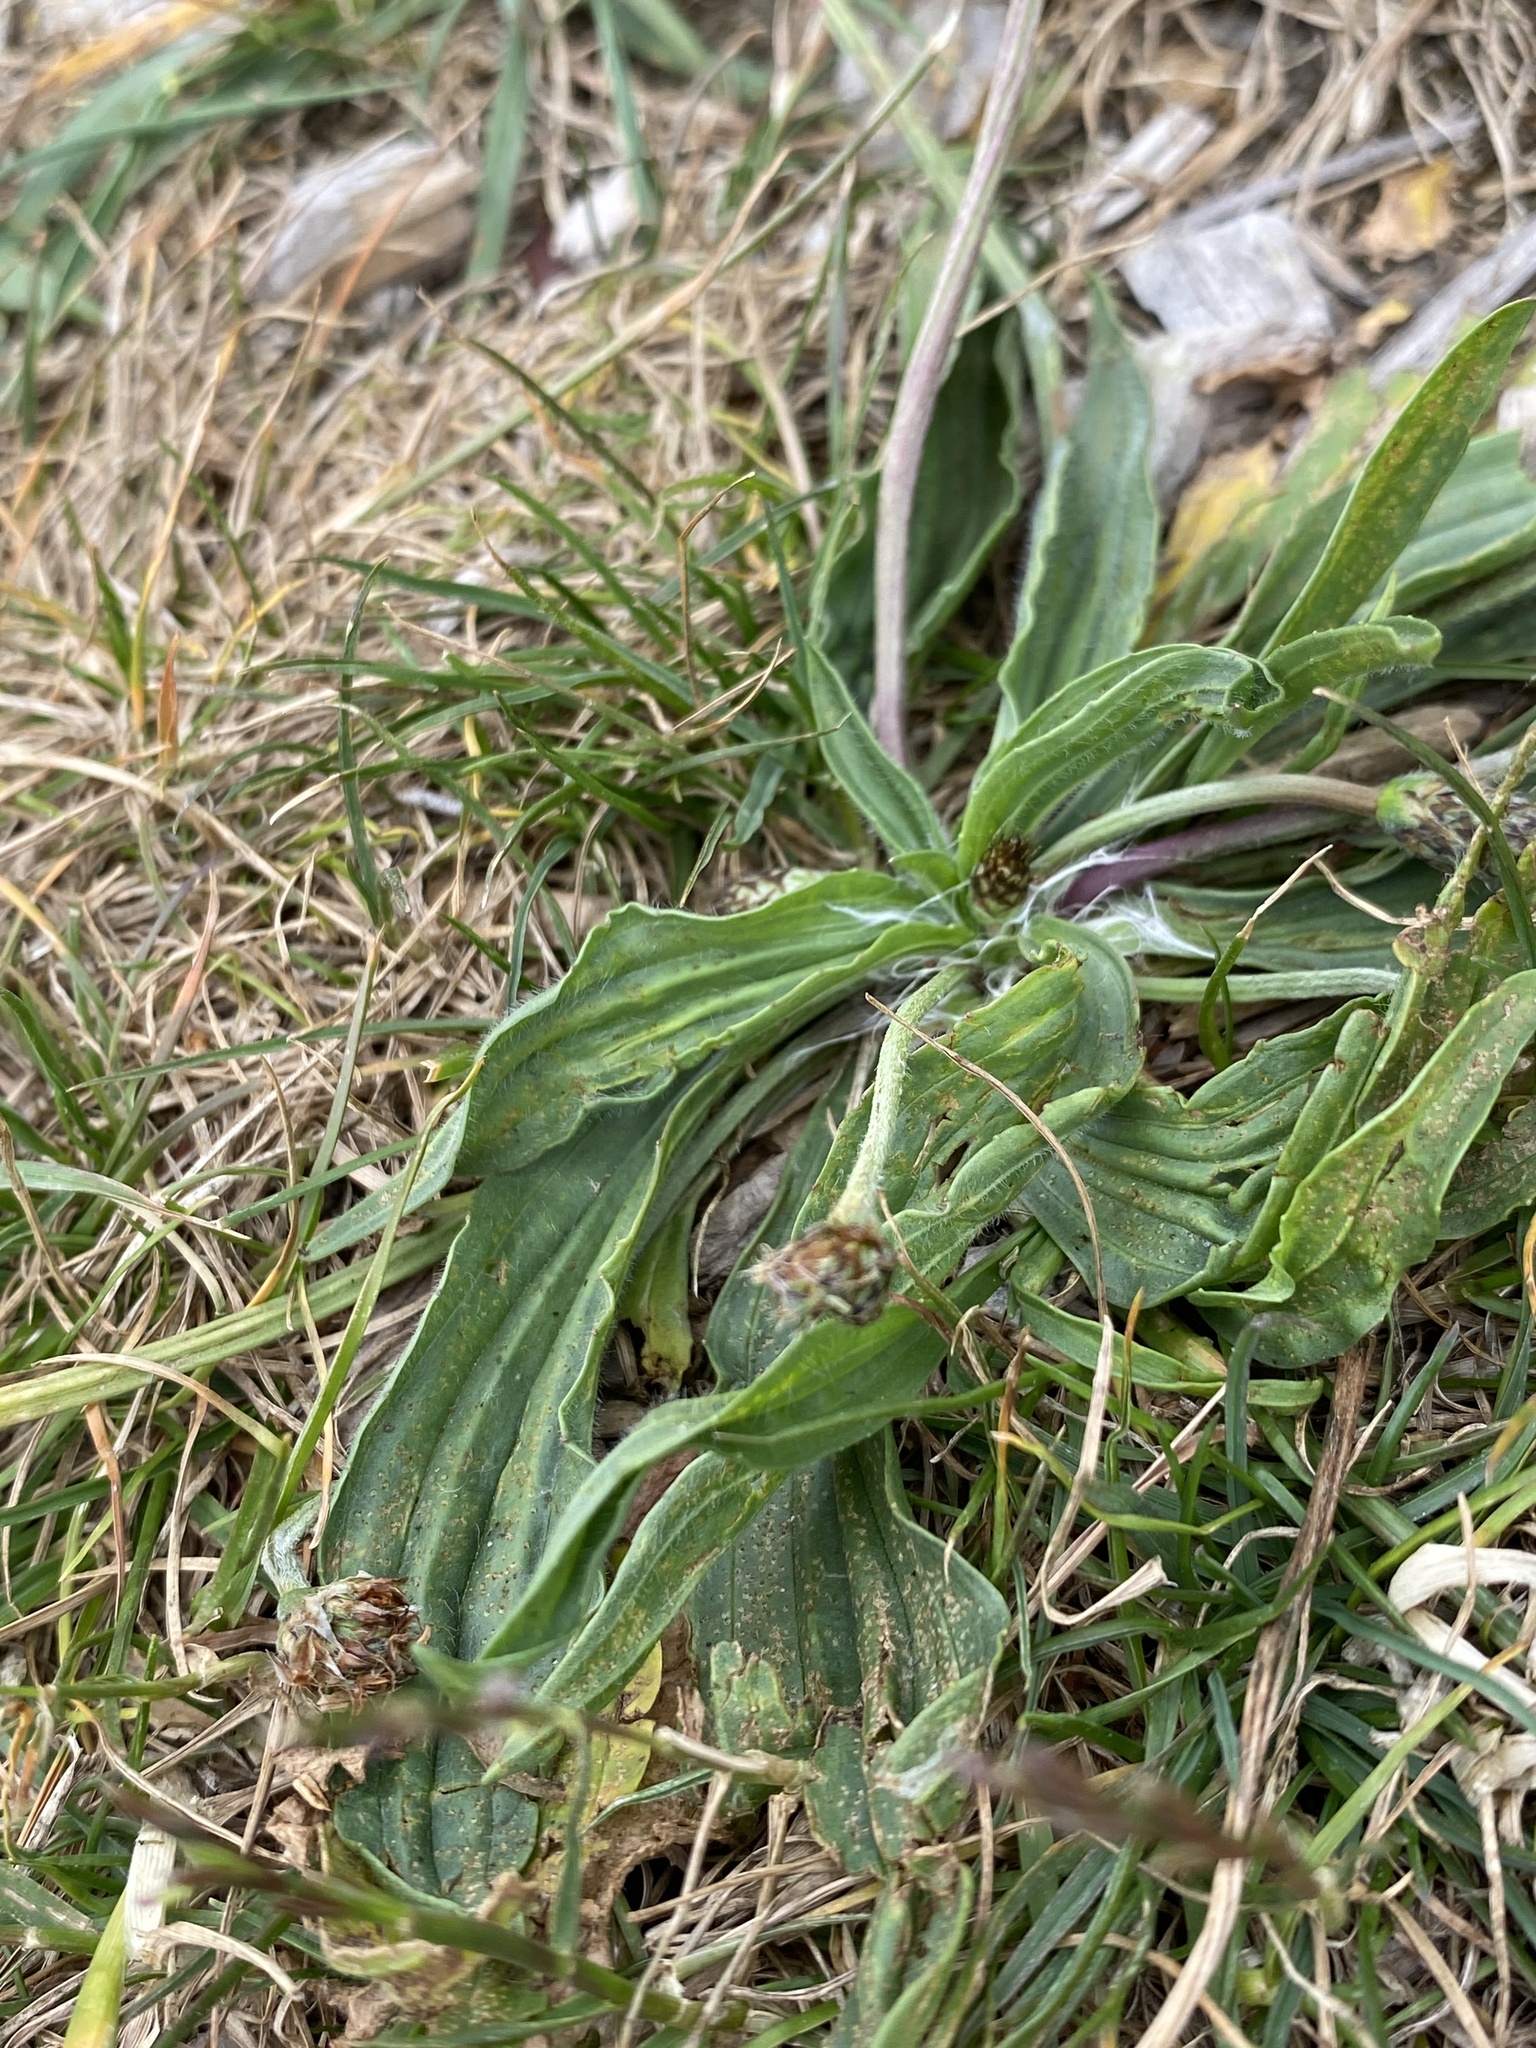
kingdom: Plantae
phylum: Tracheophyta
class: Magnoliopsida
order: Lamiales
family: Plantaginaceae
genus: Plantago
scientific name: Plantago lanceolata
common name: Ribwort plantain
